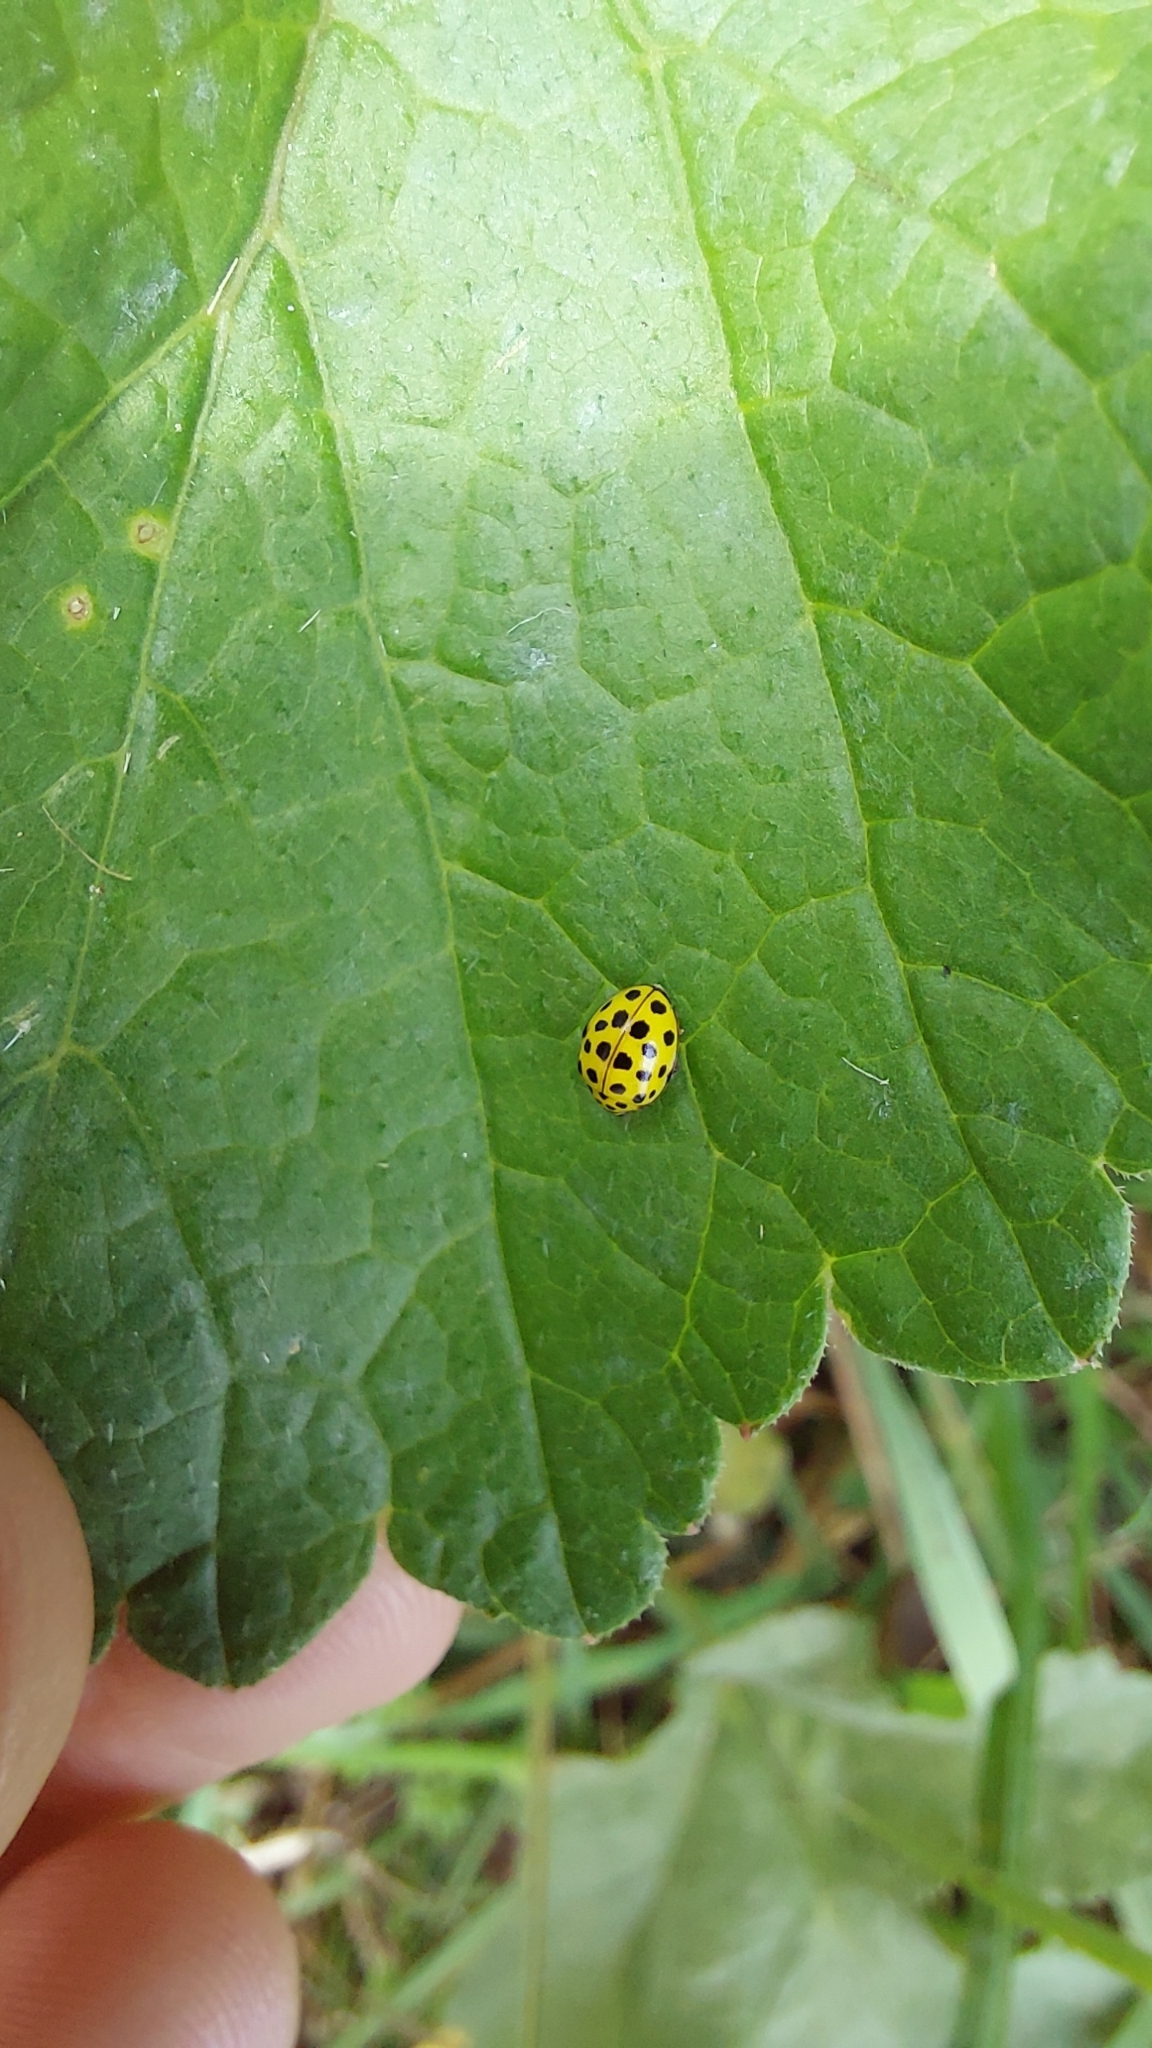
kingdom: Animalia
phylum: Arthropoda
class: Insecta
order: Coleoptera
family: Coccinellidae
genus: Psyllobora
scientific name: Psyllobora vigintiduopunctata
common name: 22-spot ladybird
